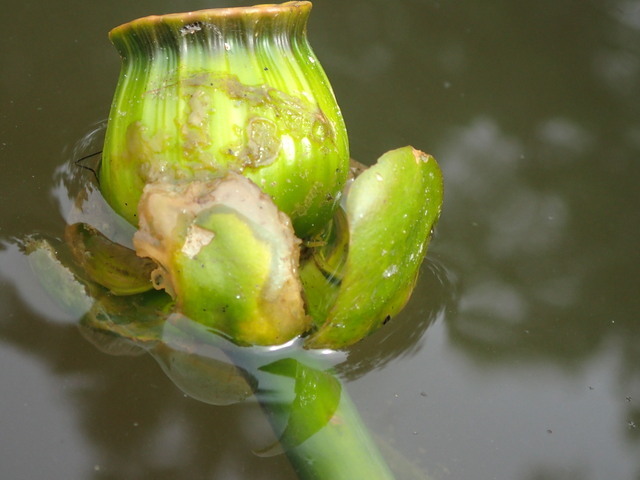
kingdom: Plantae
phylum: Tracheophyta
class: Magnoliopsida
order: Nymphaeales
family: Nymphaeaceae
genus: Nuphar
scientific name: Nuphar advena
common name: Spatter-dock
